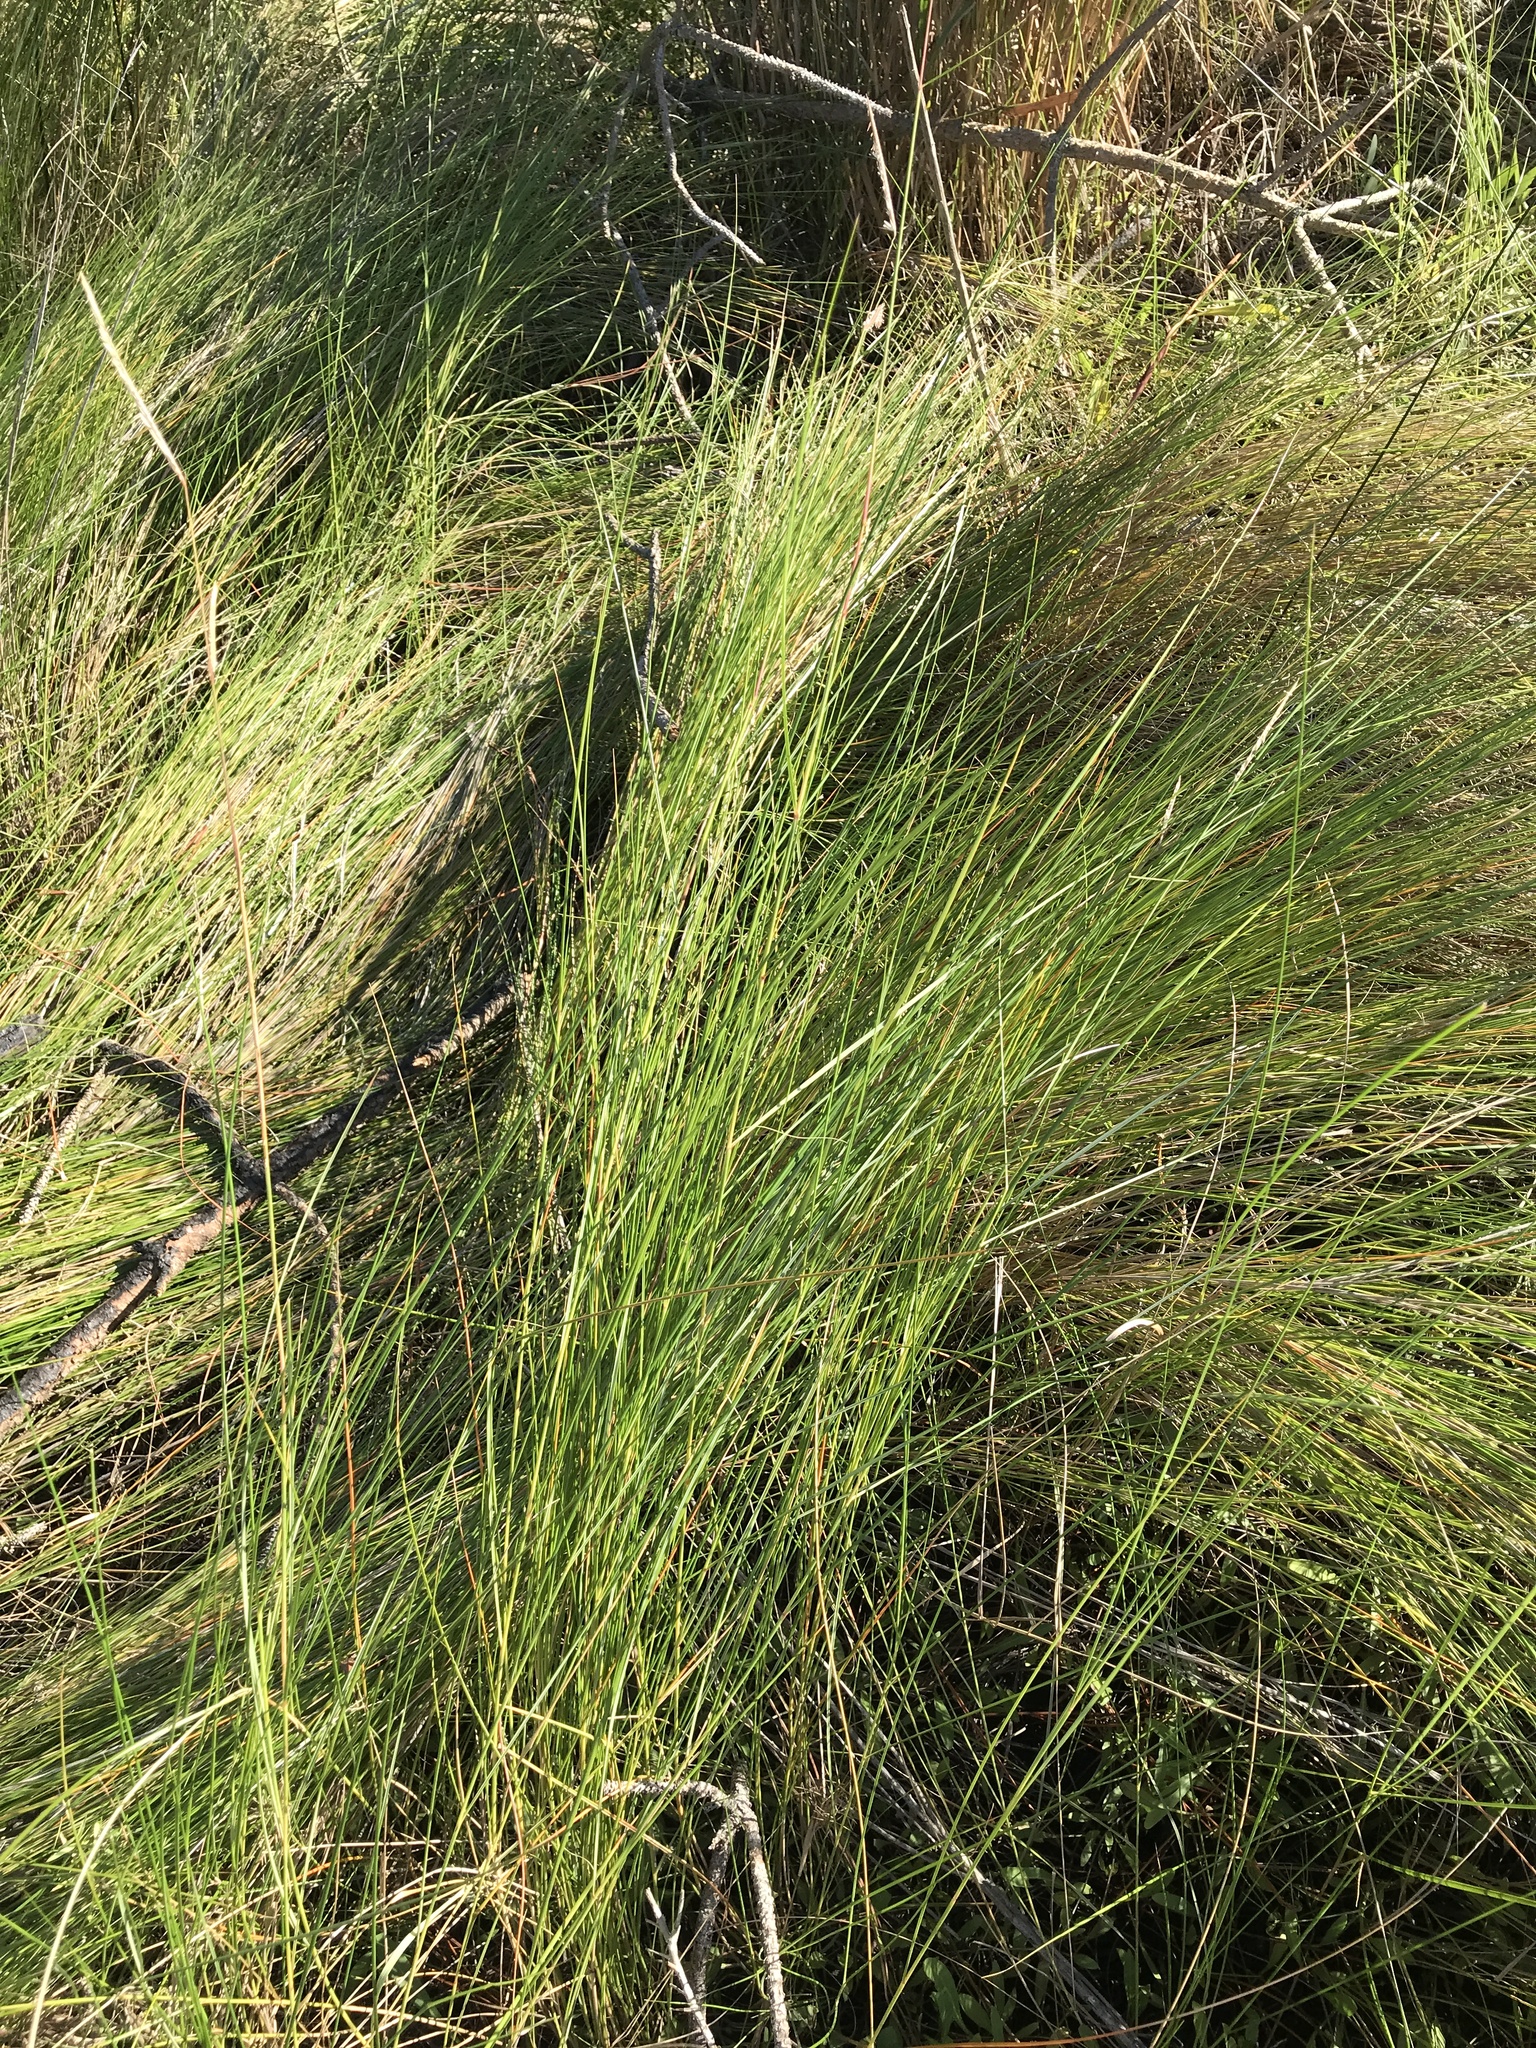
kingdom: Plantae
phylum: Tracheophyta
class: Liliopsida
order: Poales
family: Poaceae
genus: Sporobolus
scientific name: Sporobolus pumilus
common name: Highwater grass
